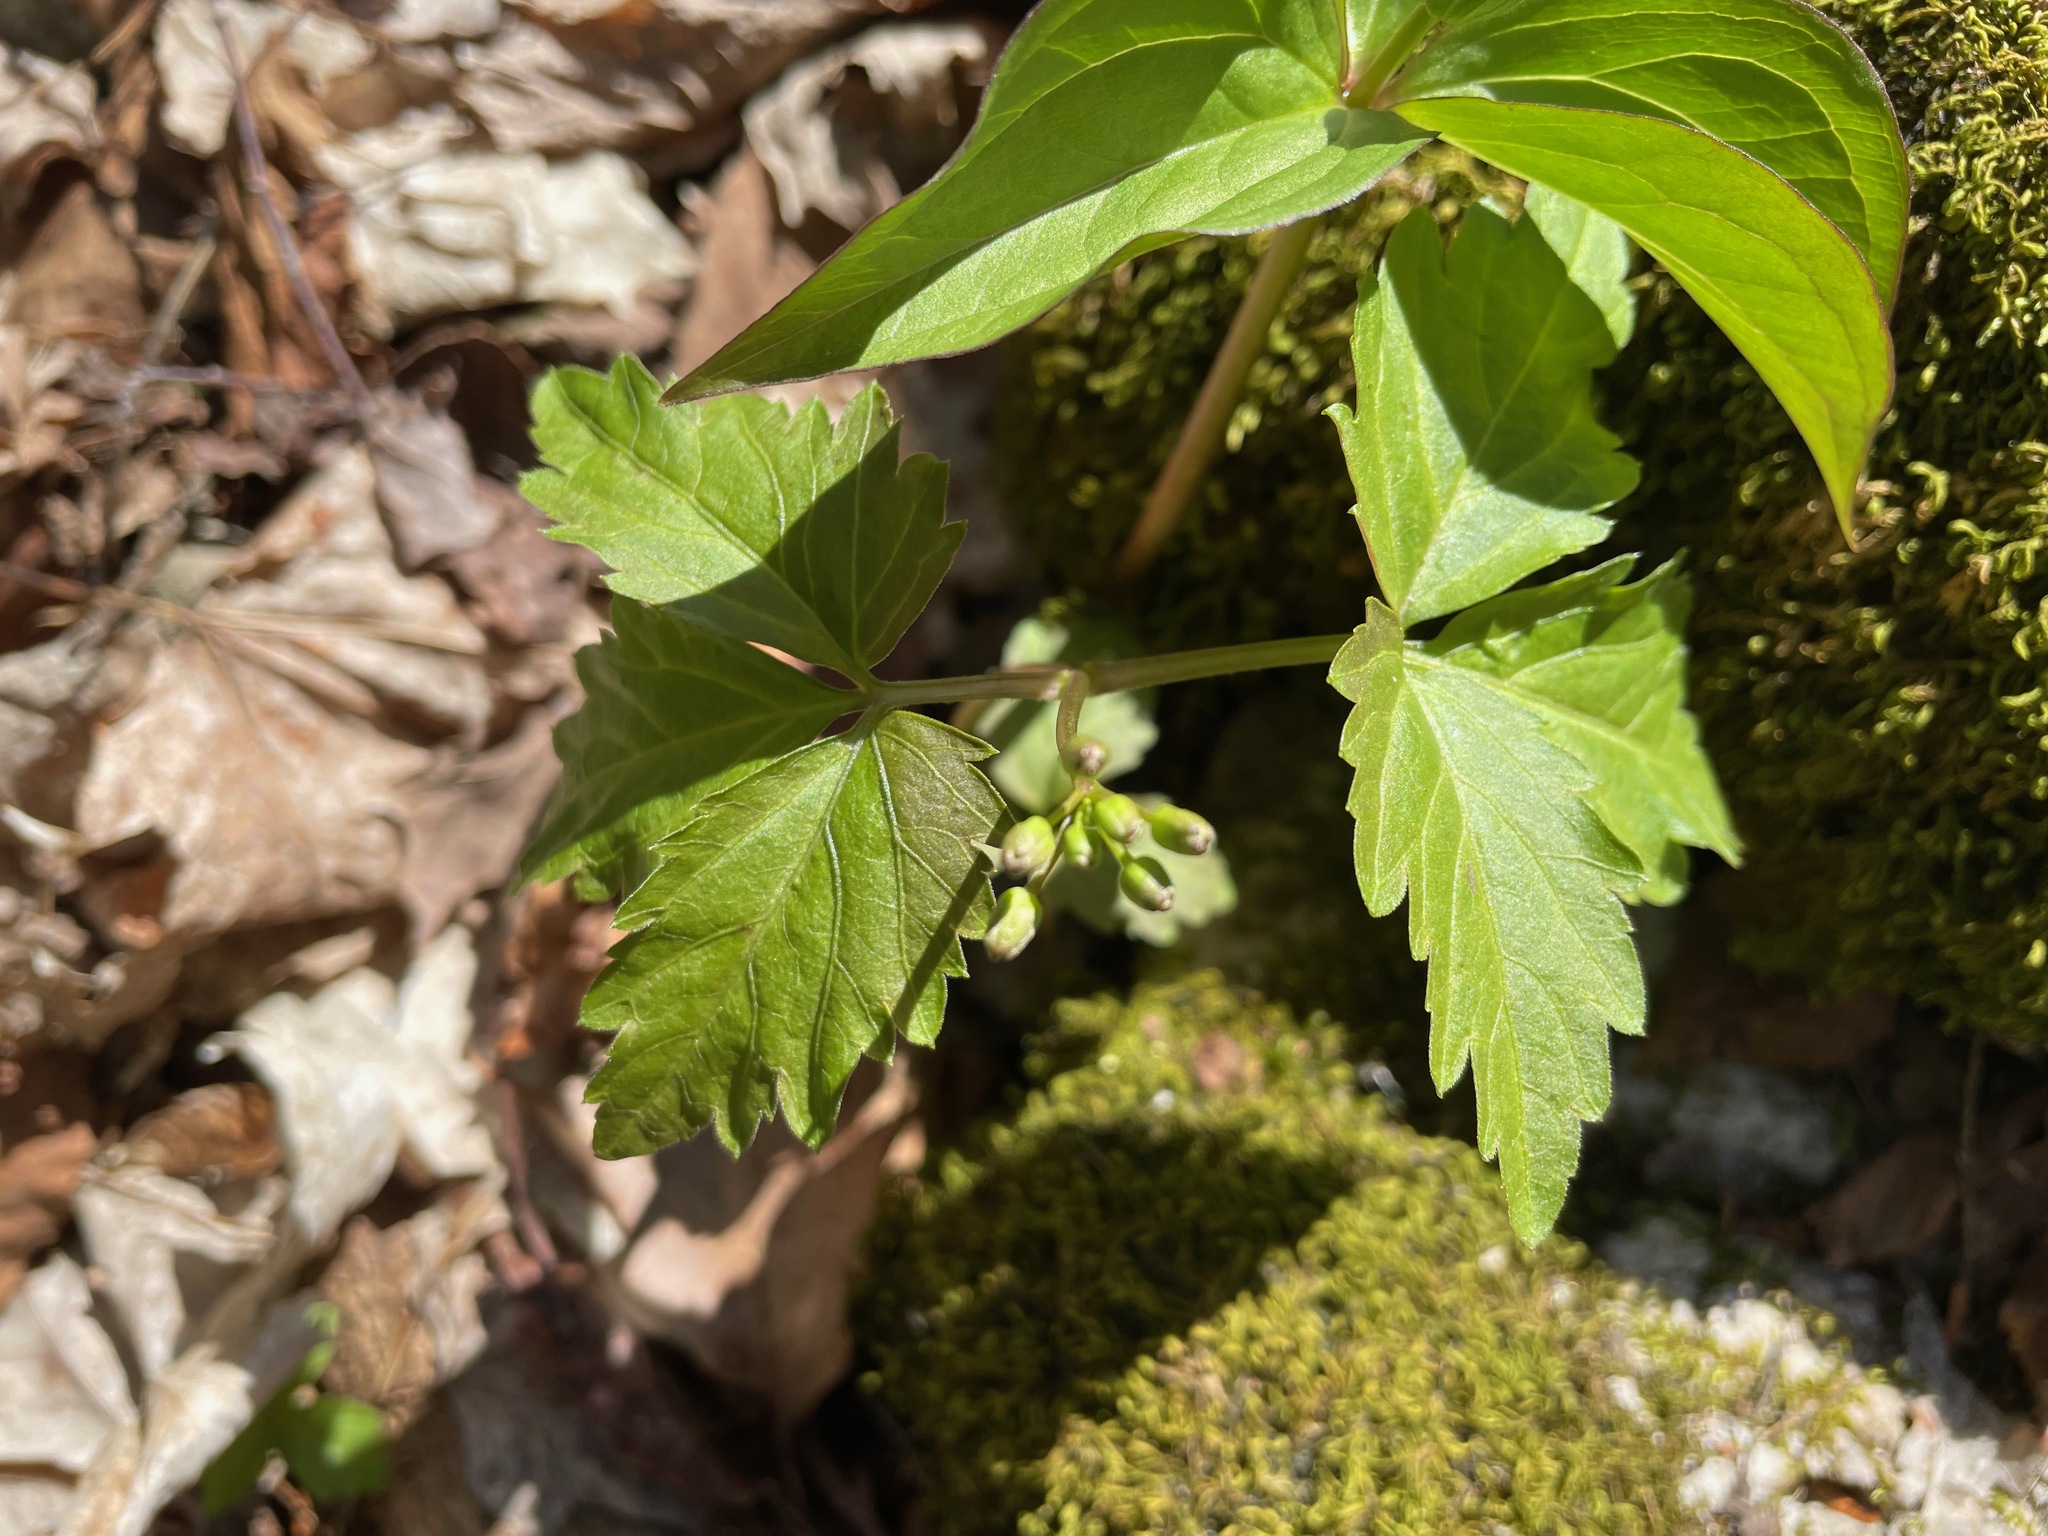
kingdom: Plantae
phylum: Tracheophyta
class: Magnoliopsida
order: Brassicales
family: Brassicaceae
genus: Cardamine
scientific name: Cardamine diphylla
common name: Broad-leaved toothwort
